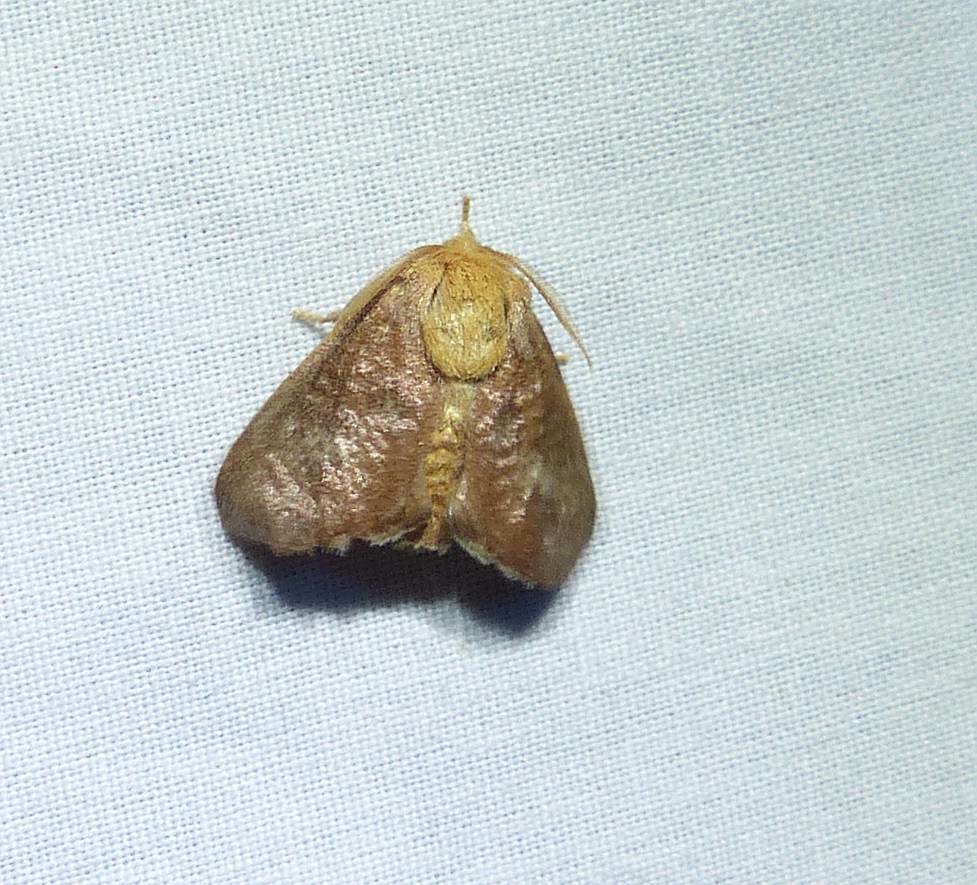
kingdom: Animalia
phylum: Arthropoda
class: Insecta
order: Lepidoptera
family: Limacodidae
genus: Isa
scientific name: Isa textula
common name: Crowned slug moth
